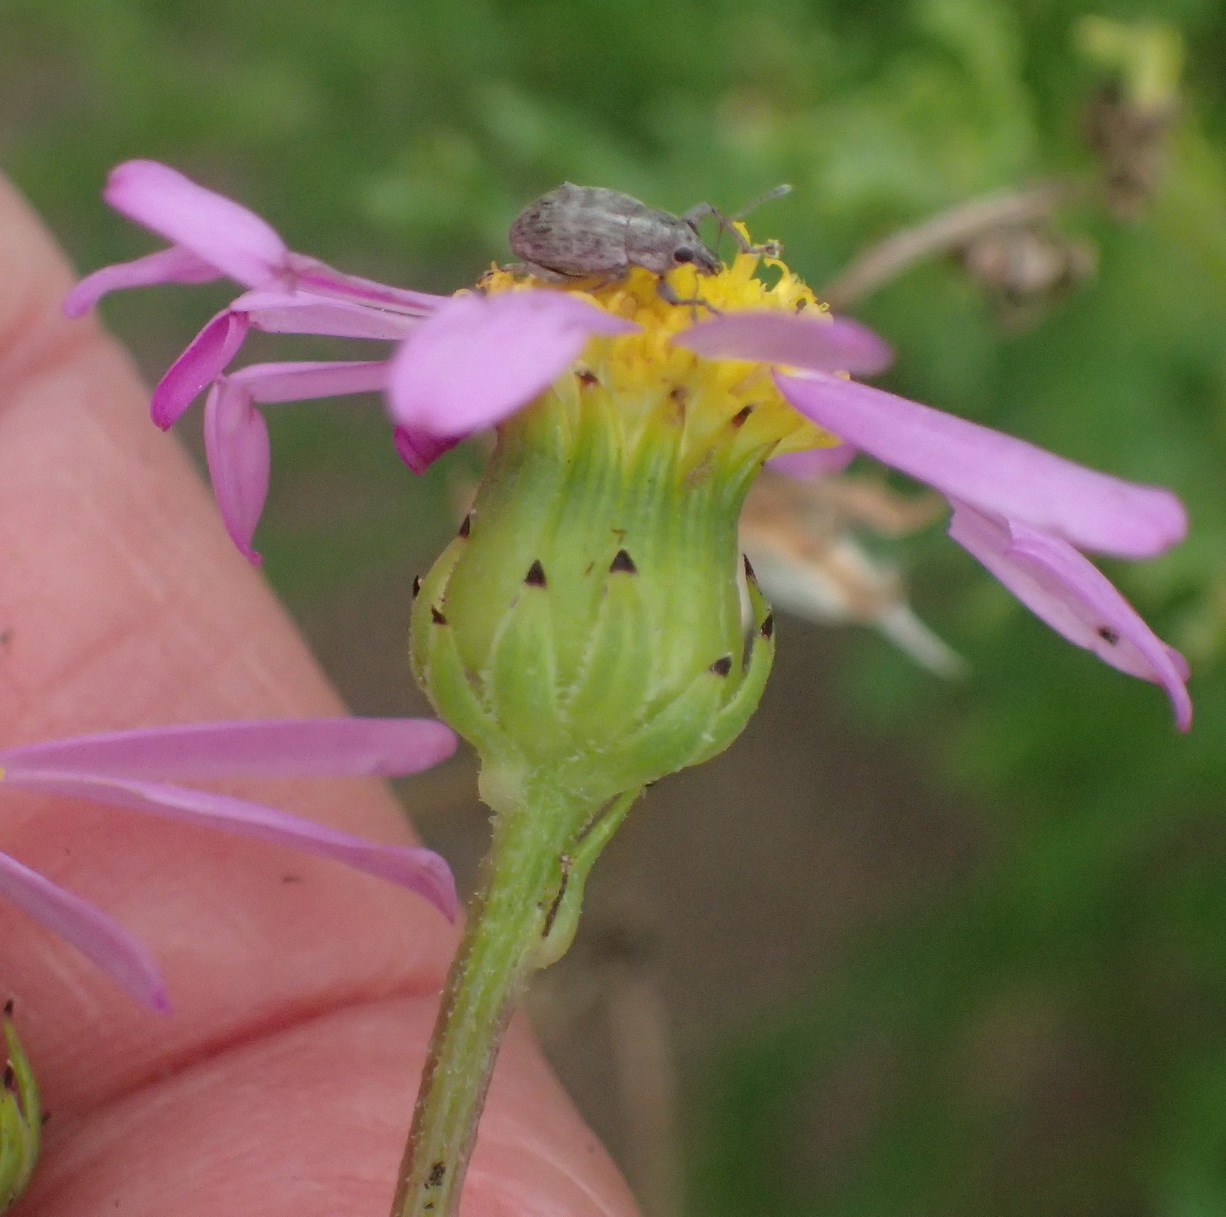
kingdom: Plantae
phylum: Tracheophyta
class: Magnoliopsida
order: Asterales
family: Asteraceae
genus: Senecio
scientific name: Senecio elegans
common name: Purple groundsel
